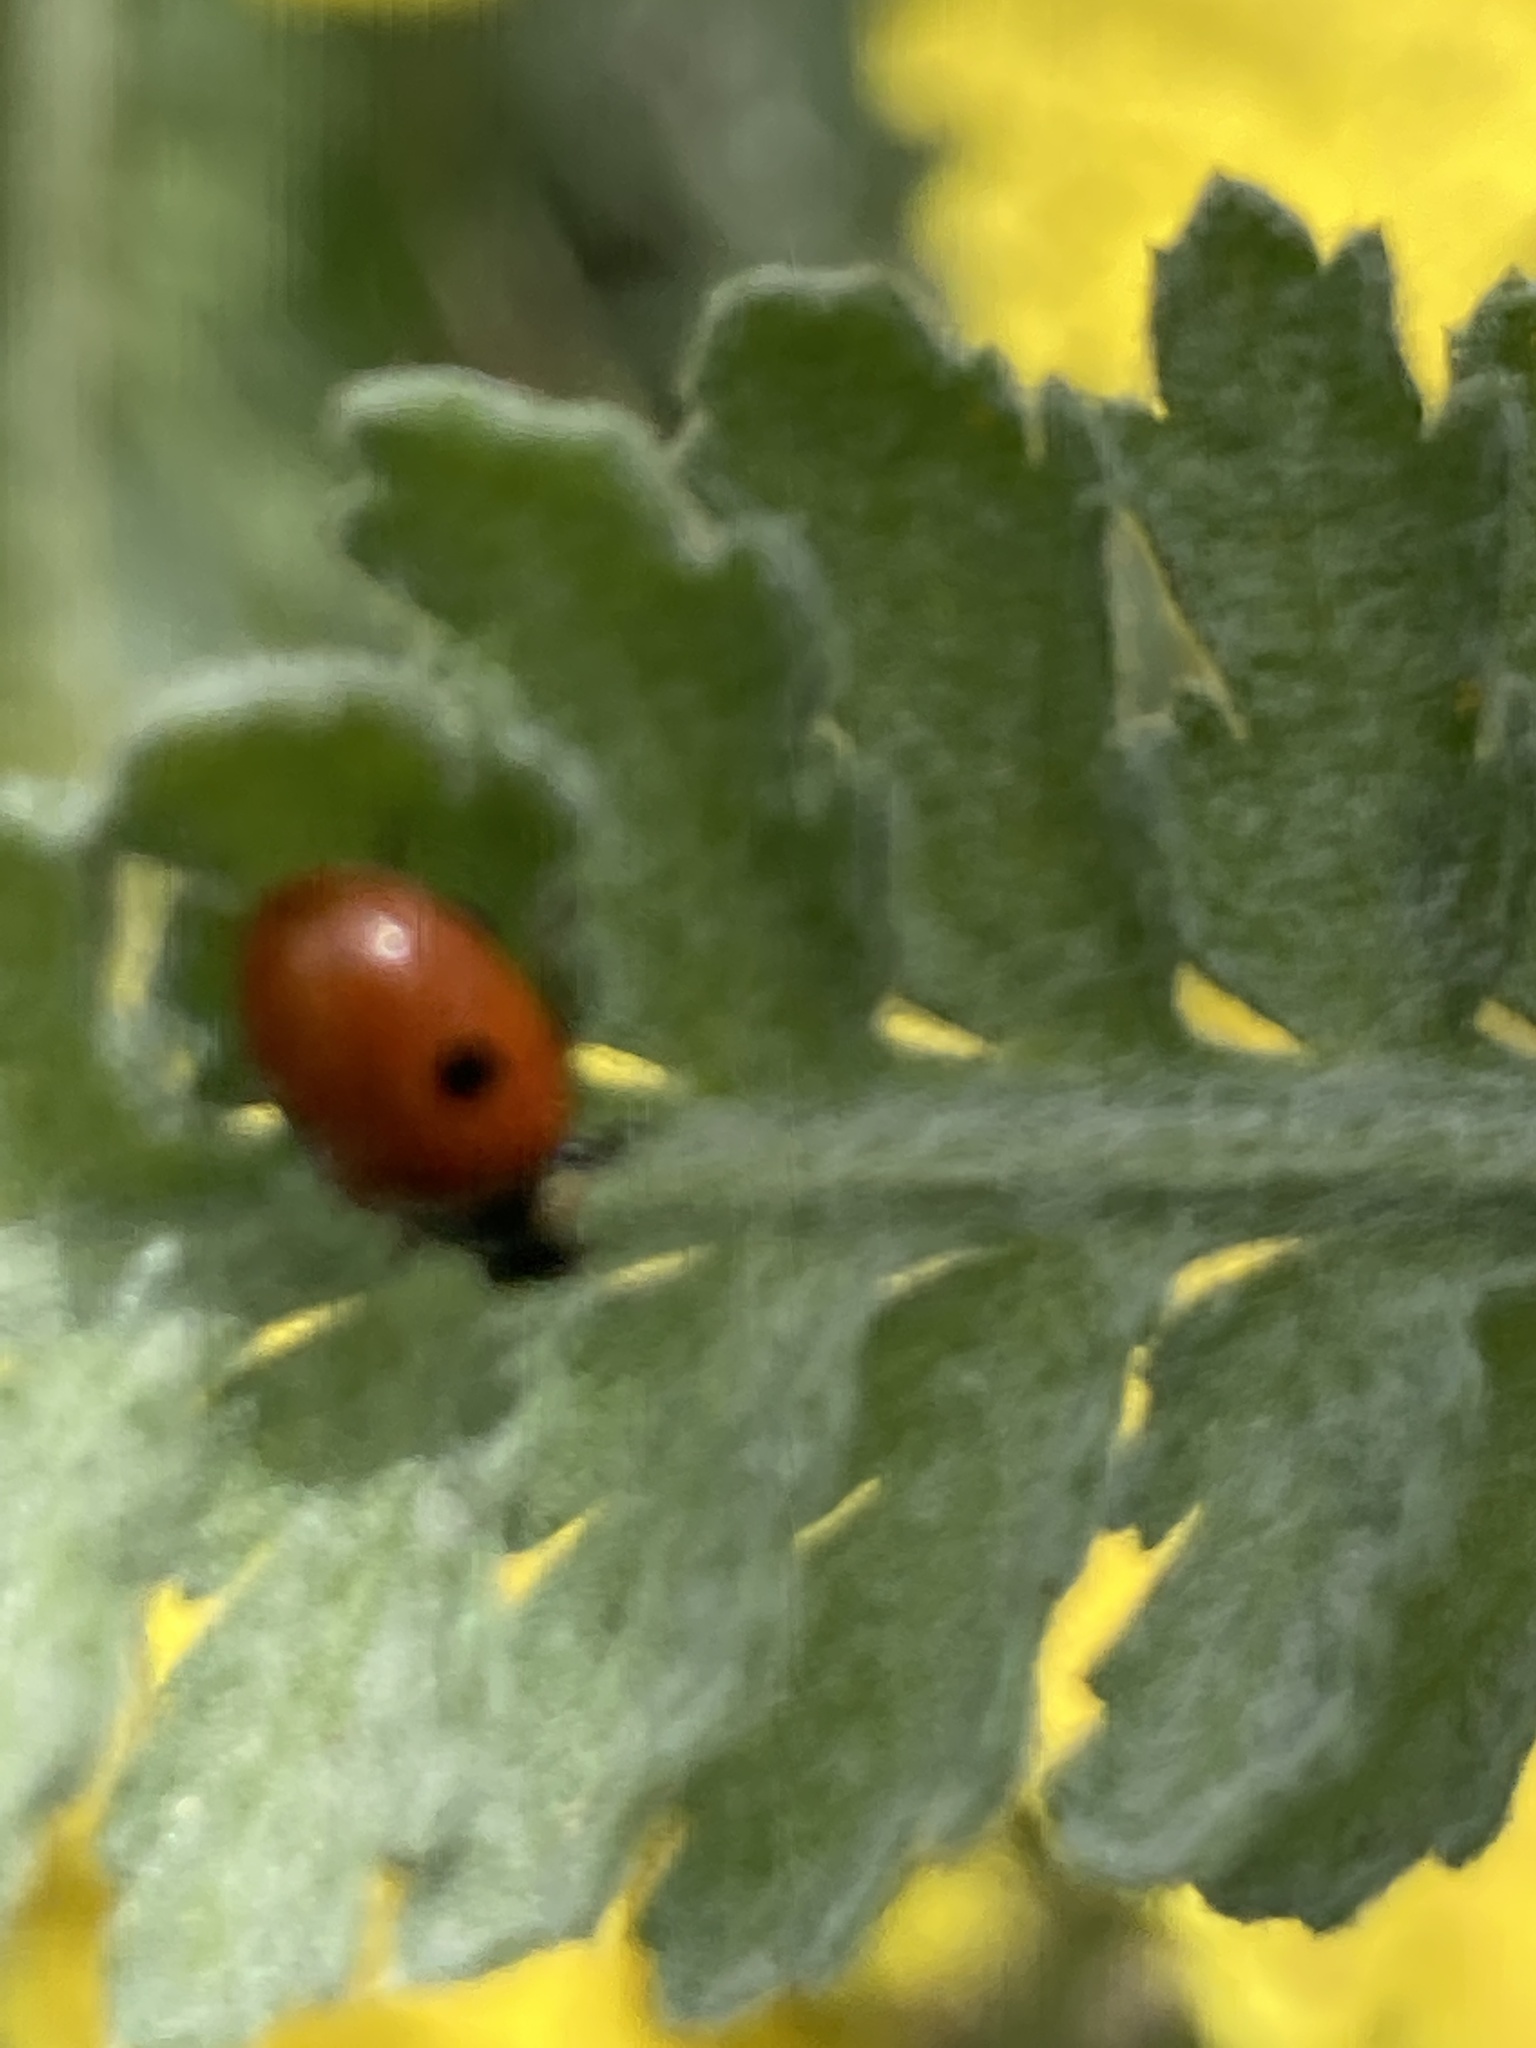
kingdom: Animalia
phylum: Arthropoda
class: Insecta
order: Coleoptera
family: Coccinellidae
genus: Adalia
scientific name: Adalia bipunctata
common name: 2-spot ladybird
